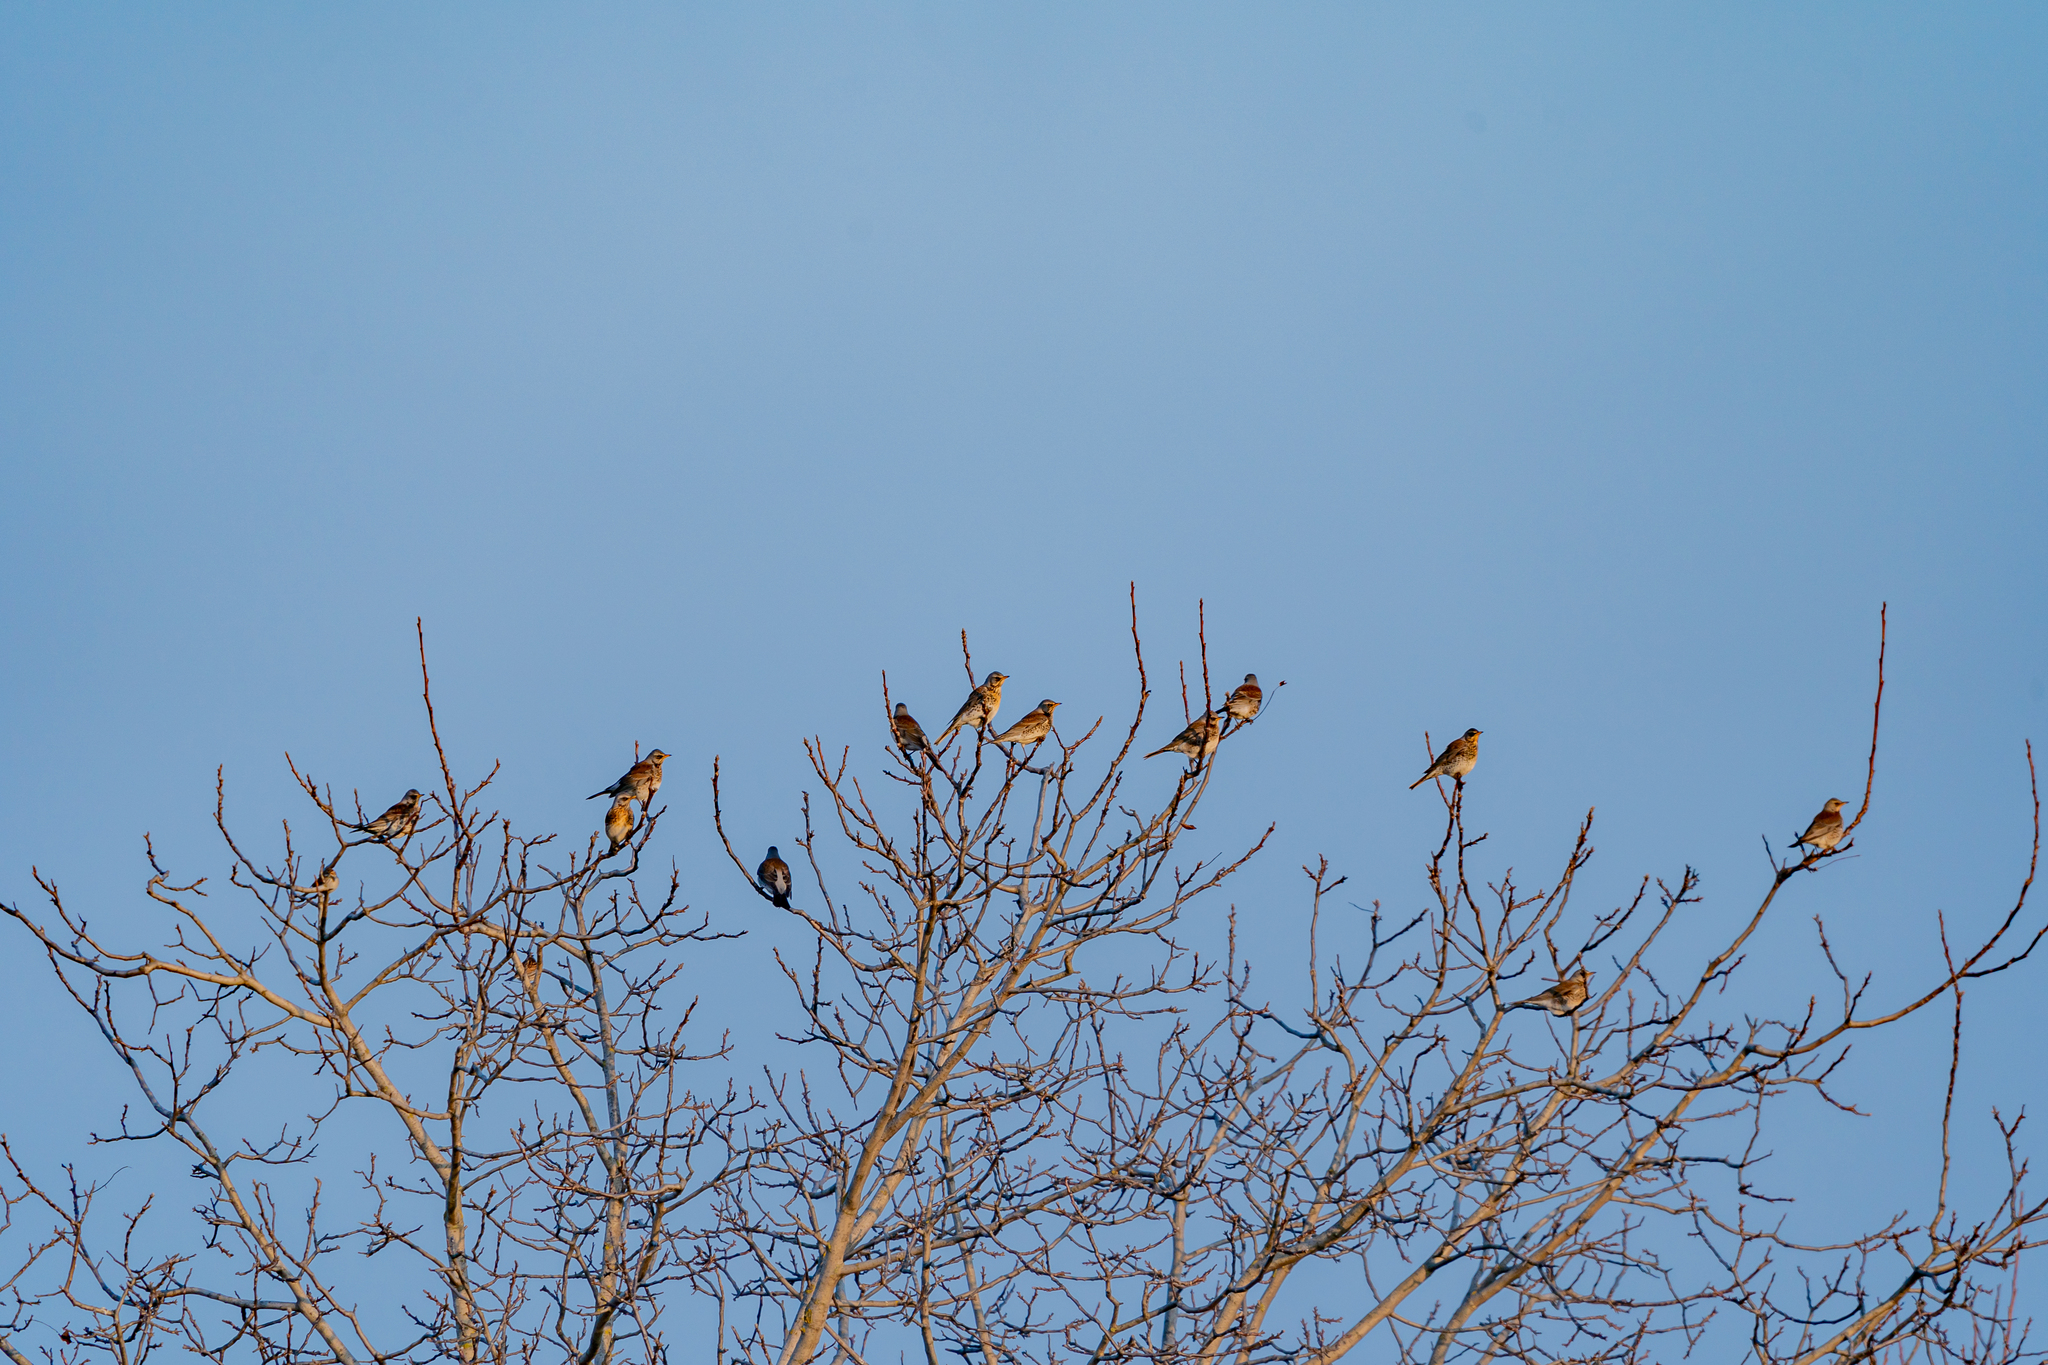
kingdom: Animalia
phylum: Chordata
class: Aves
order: Passeriformes
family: Turdidae
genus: Turdus
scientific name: Turdus pilaris
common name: Fieldfare
